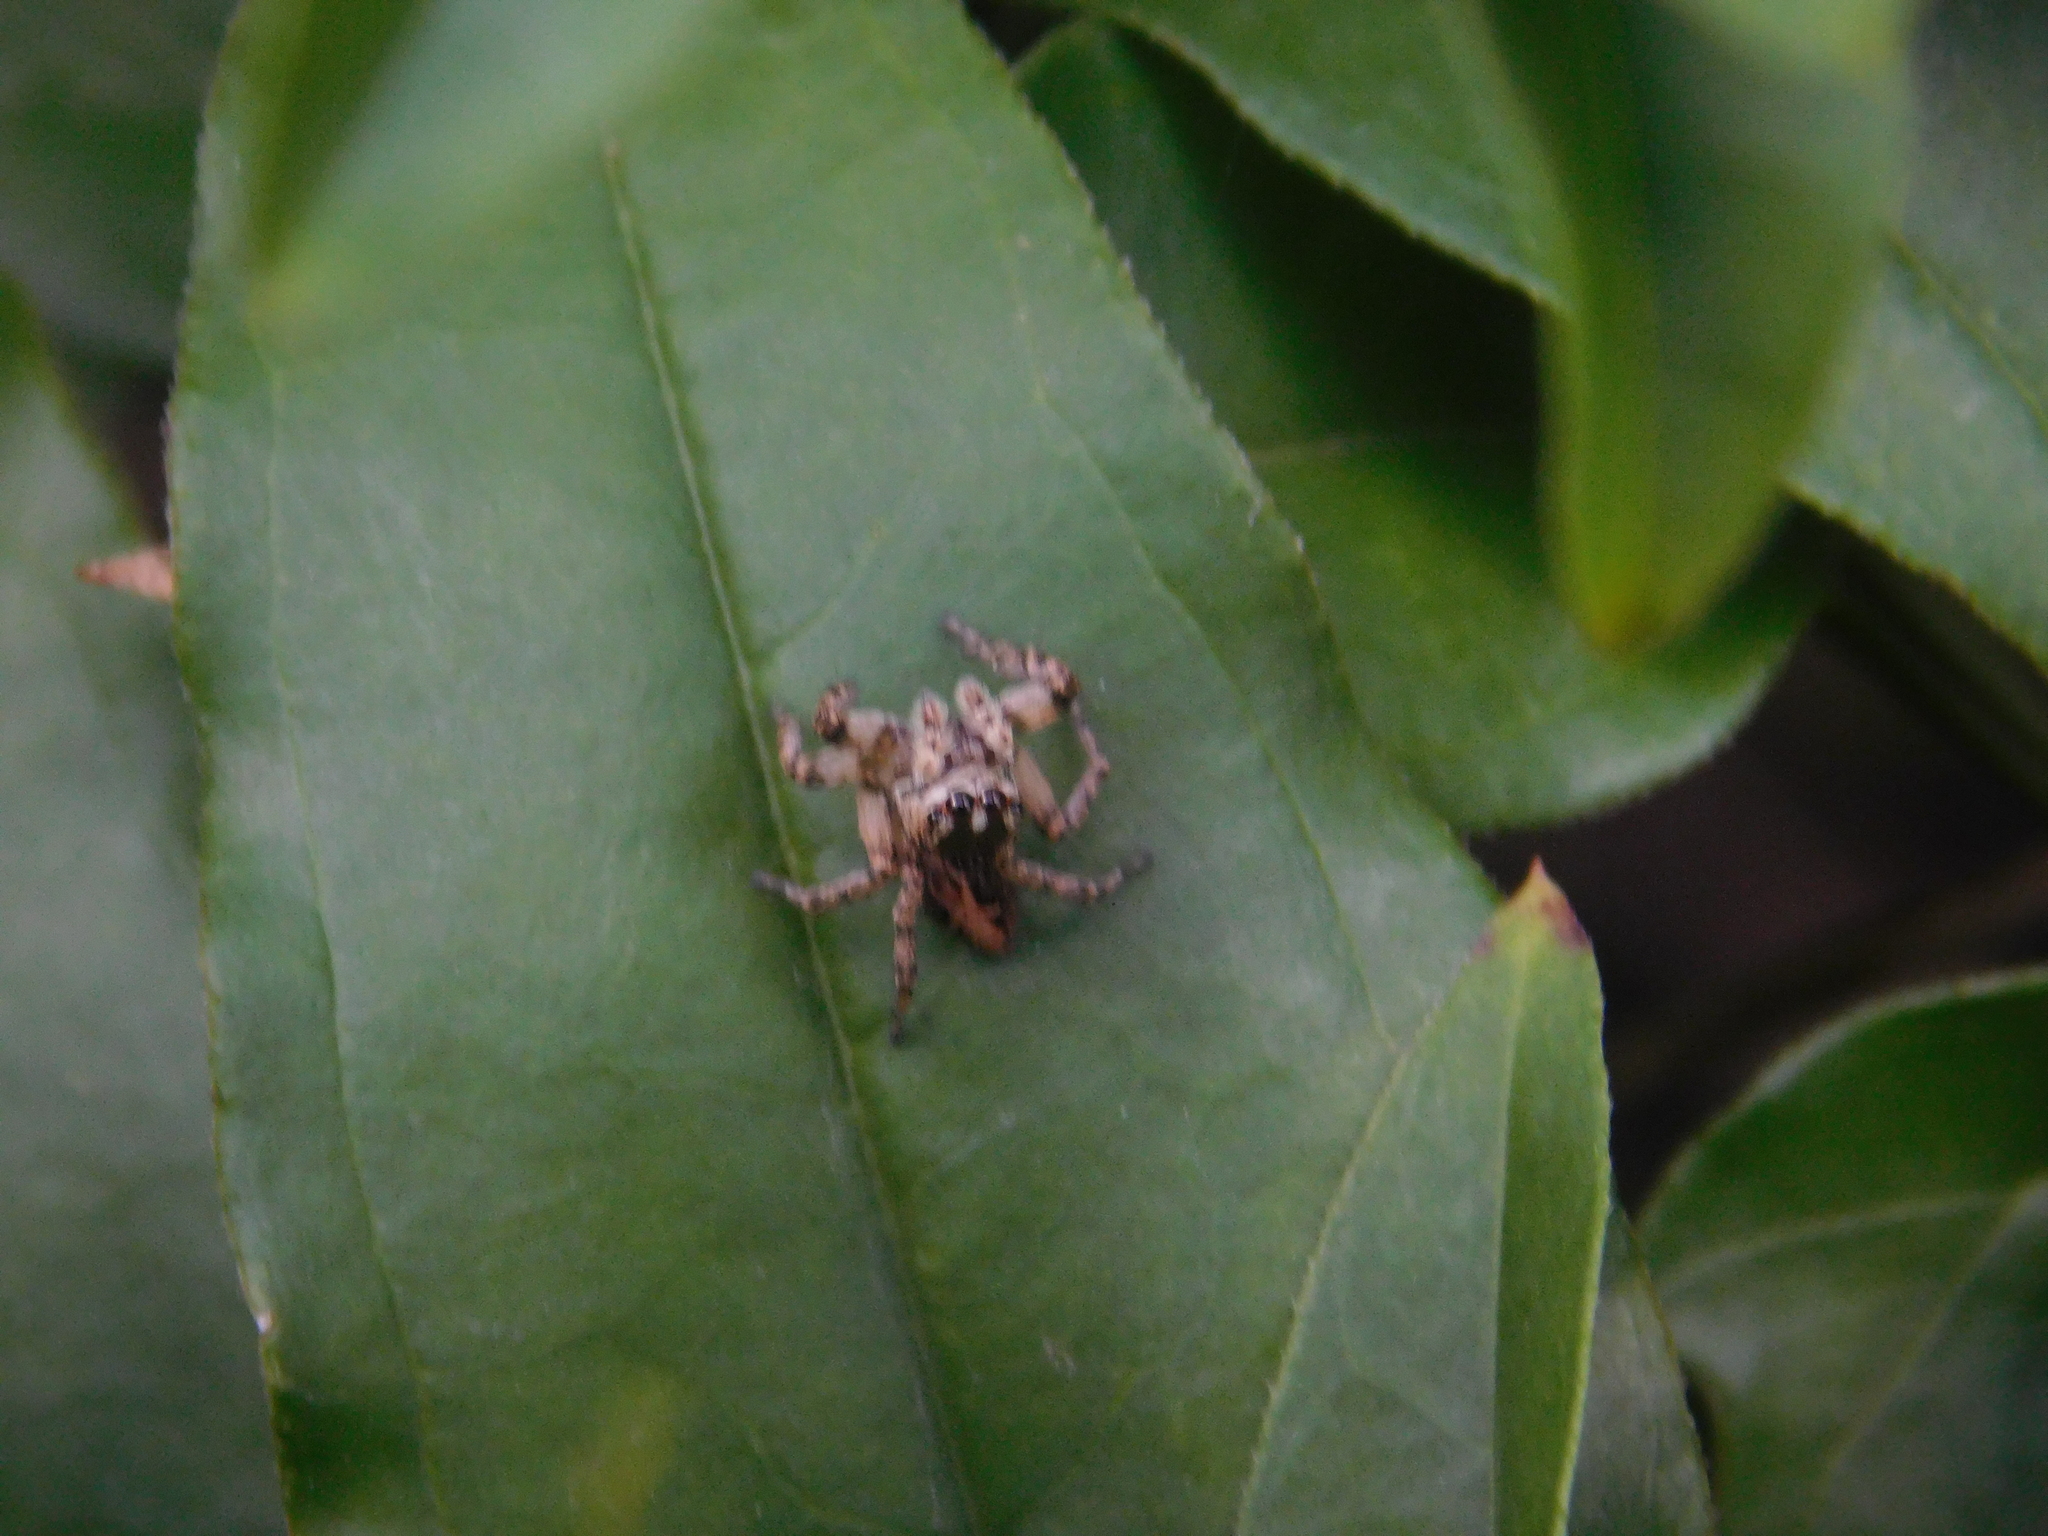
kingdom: Animalia
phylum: Arthropoda
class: Arachnida
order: Araneae
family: Salticidae
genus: Aphirape
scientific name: Aphirape
